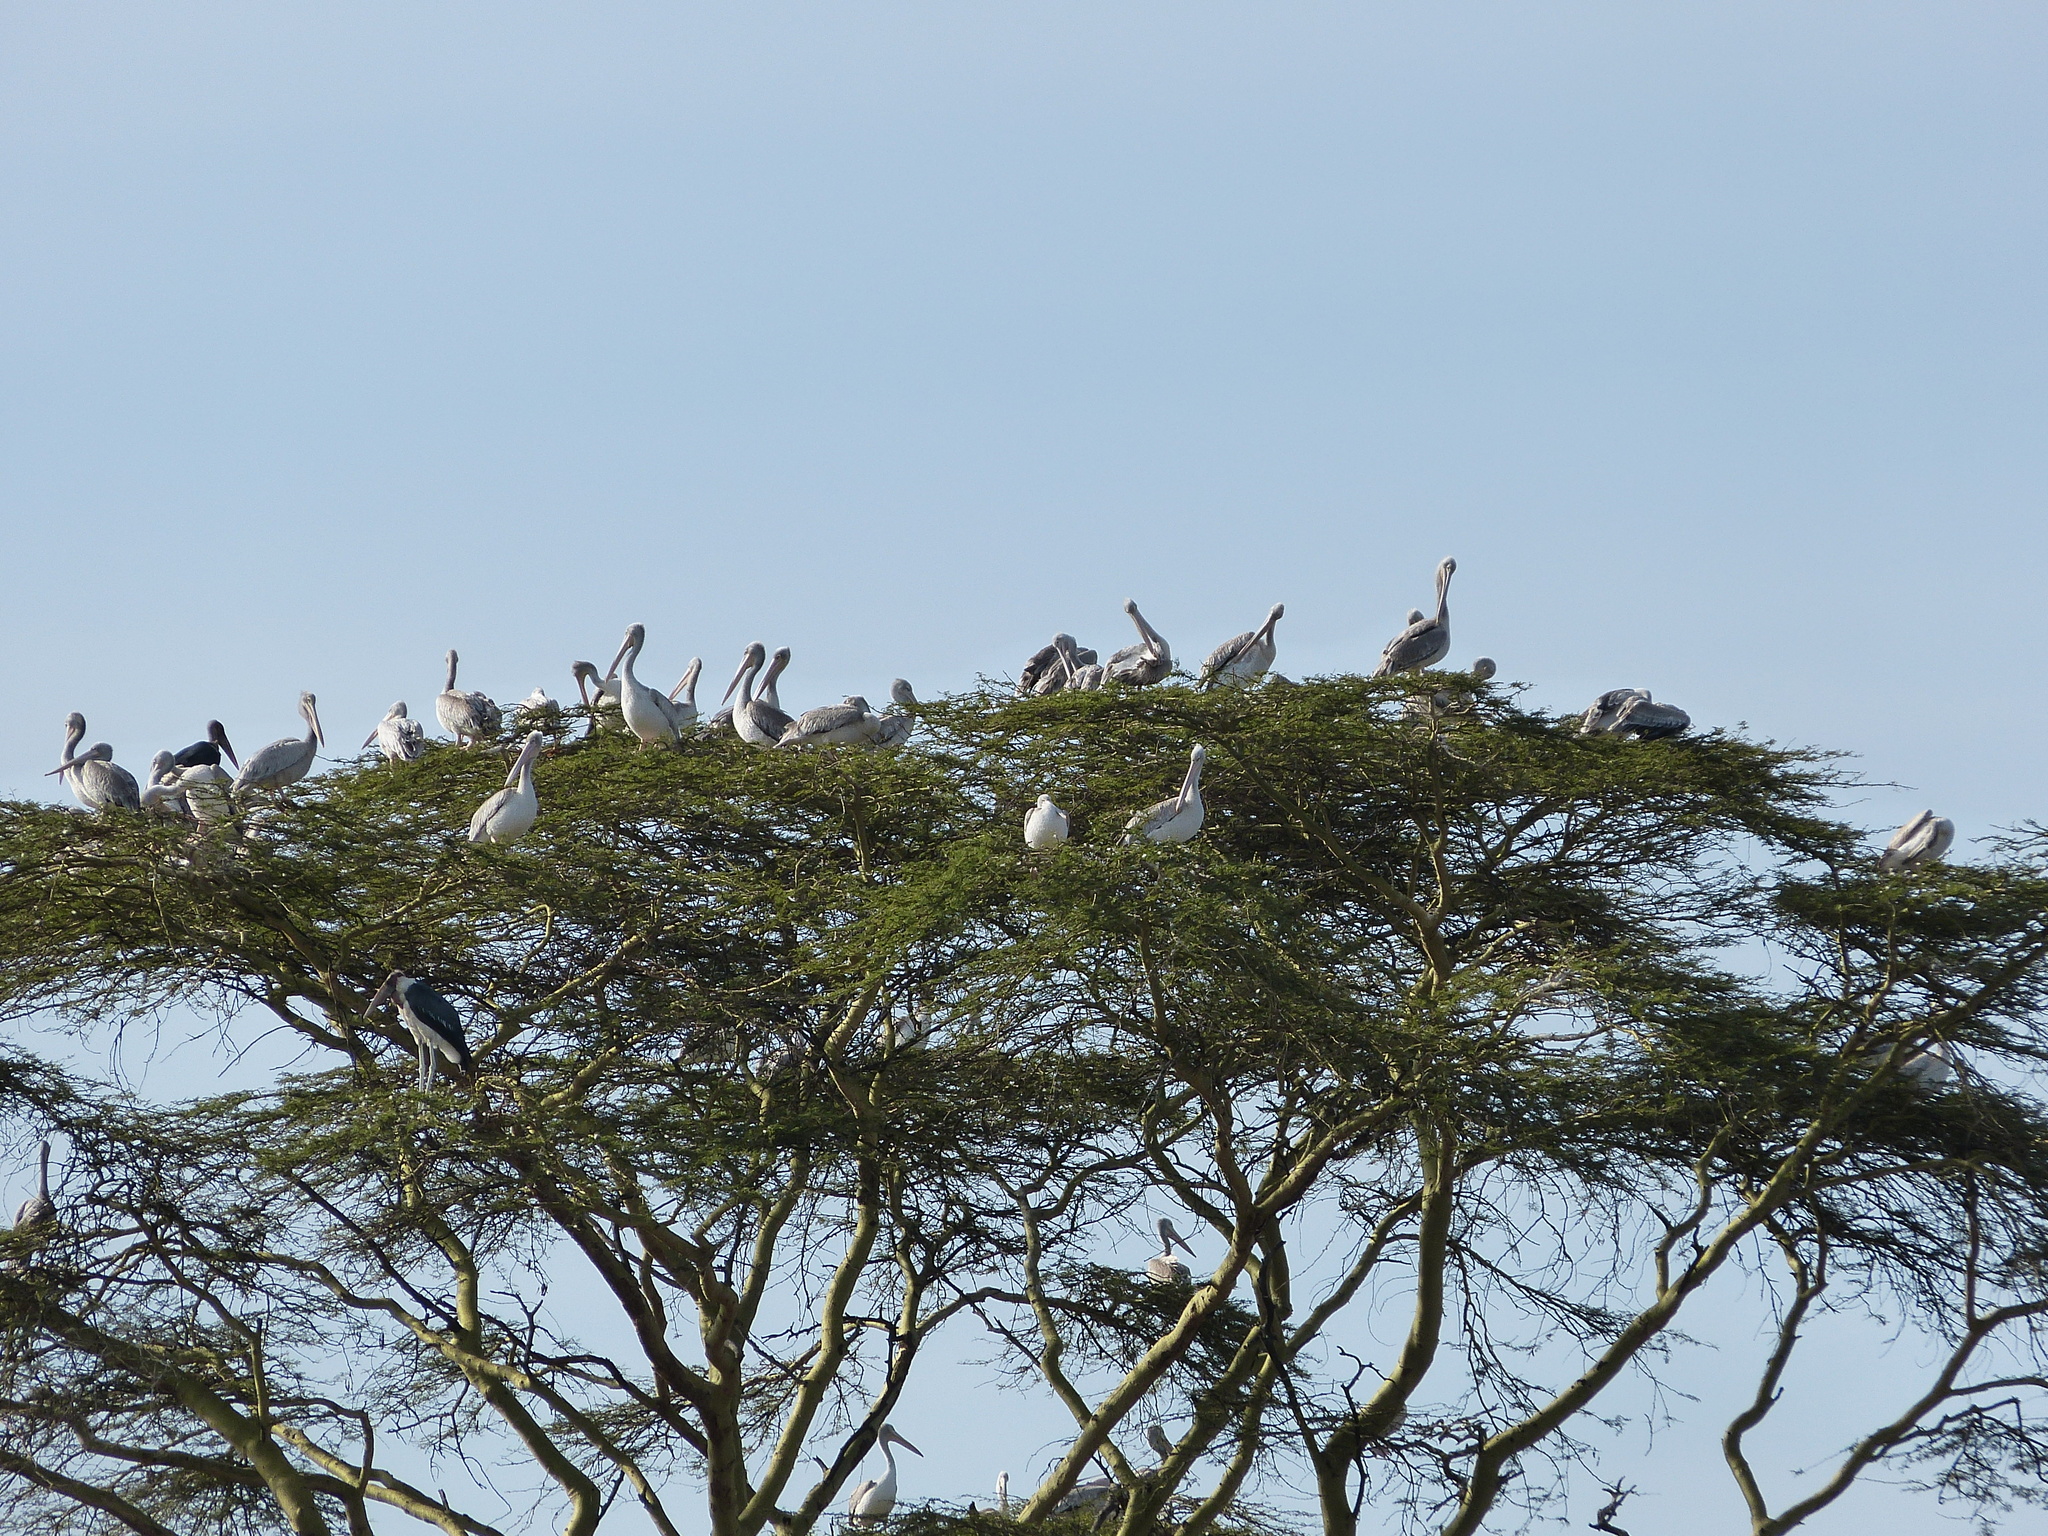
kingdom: Animalia
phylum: Chordata
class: Aves
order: Pelecaniformes
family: Pelecanidae
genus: Pelecanus
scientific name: Pelecanus rufescens
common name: Pink-backed pelican
